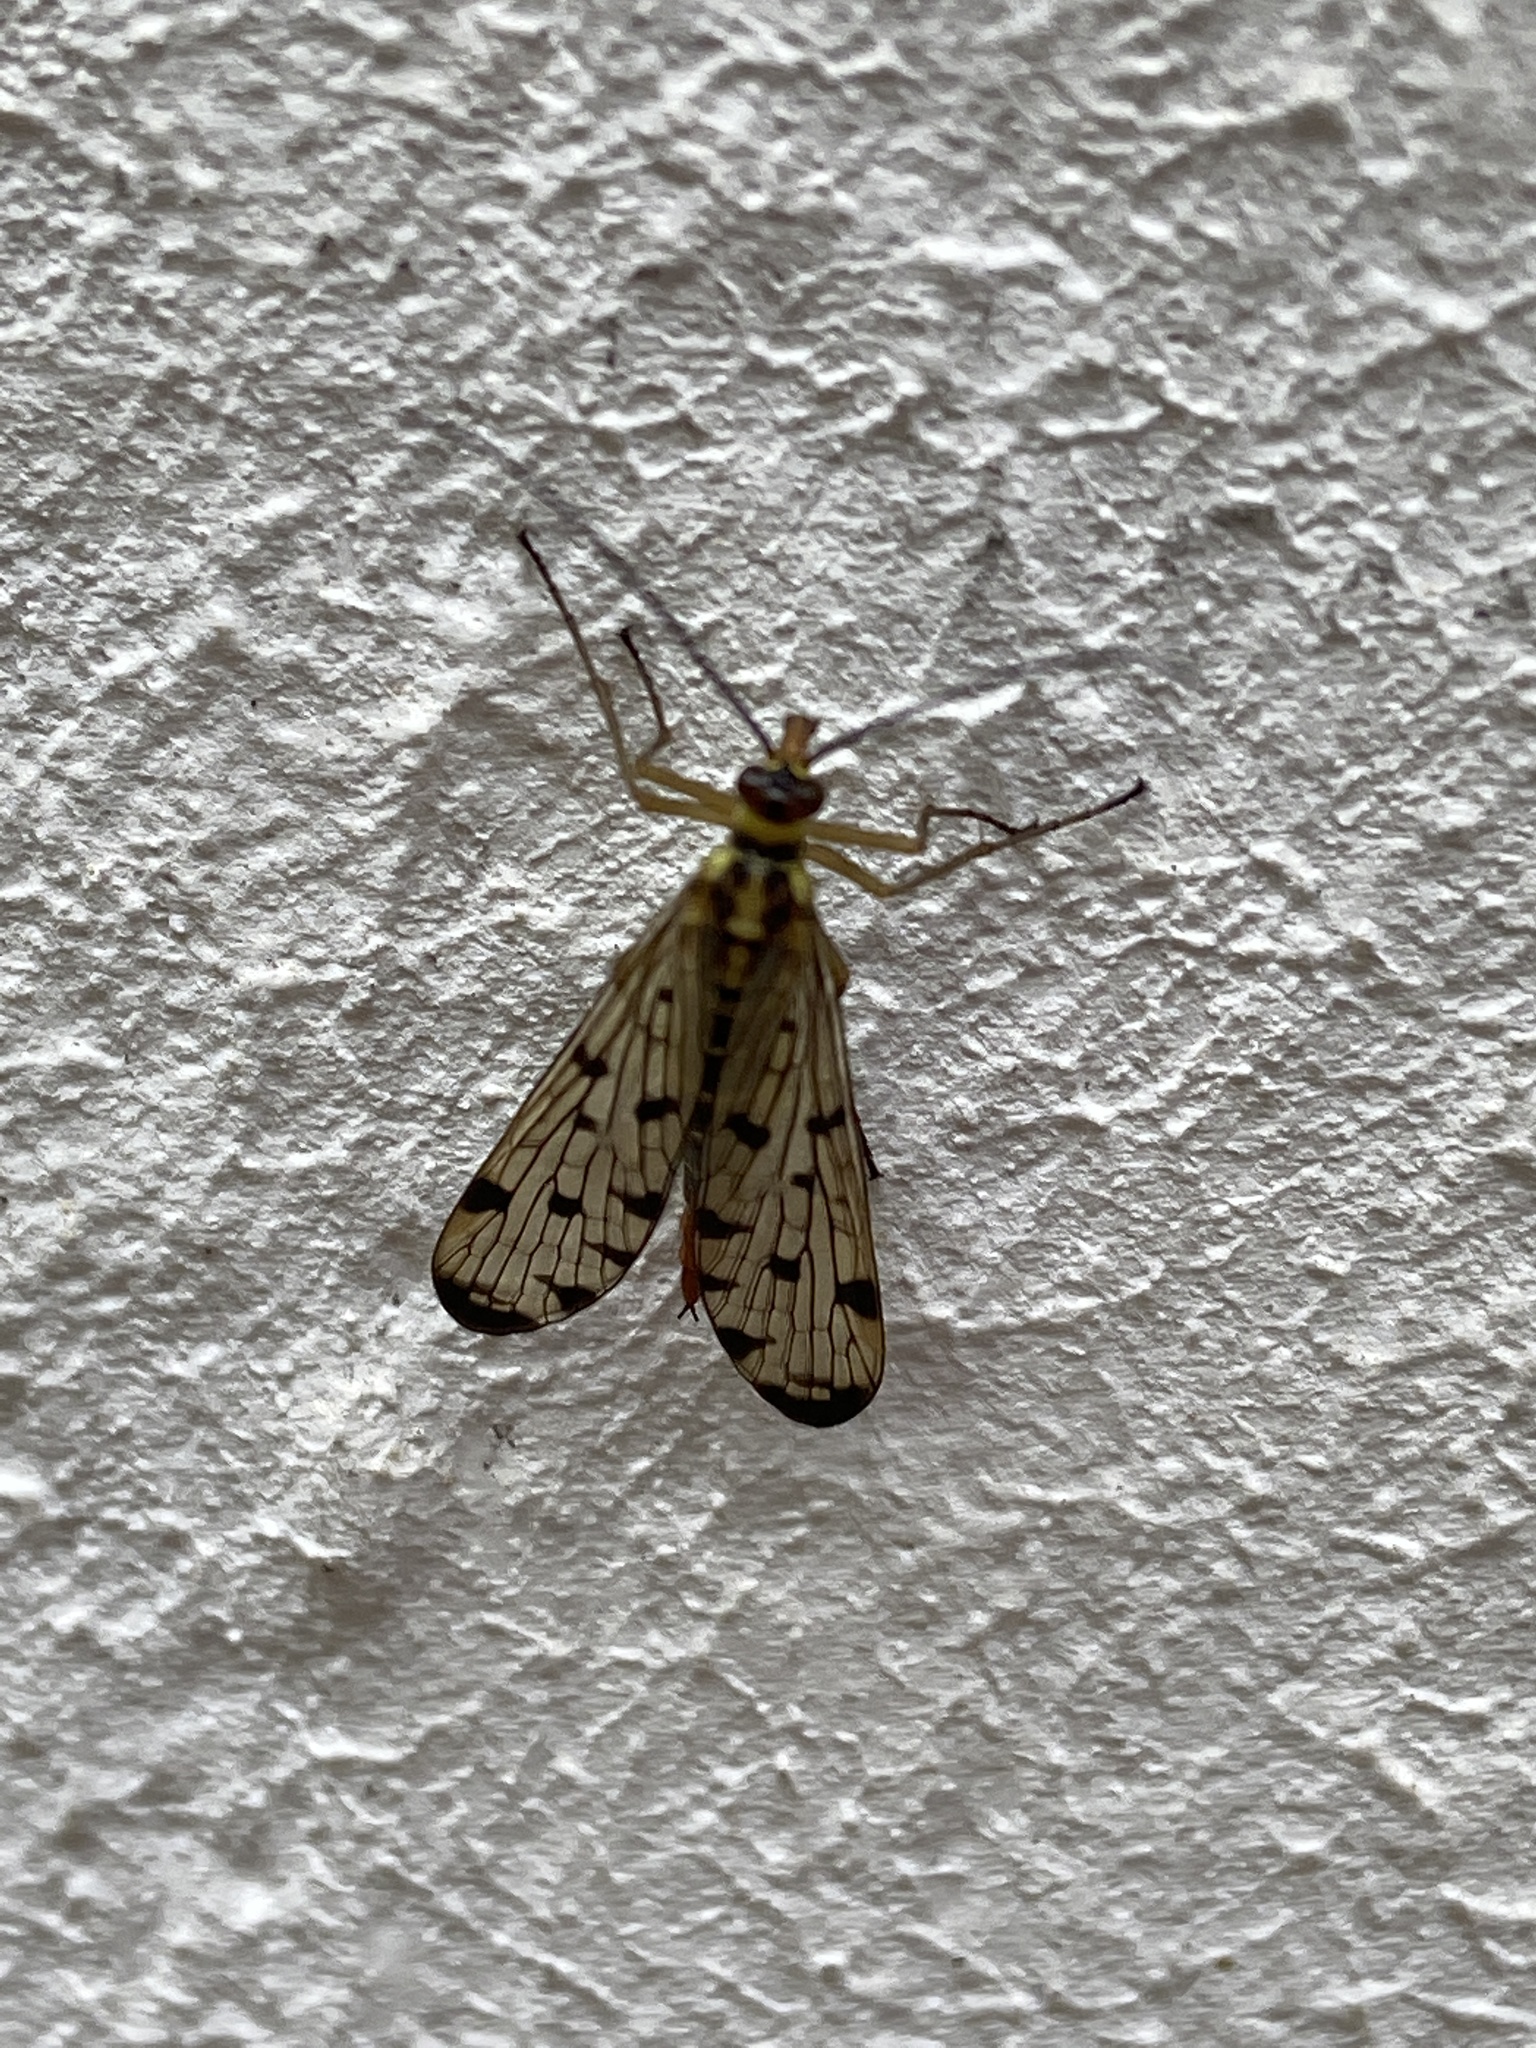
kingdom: Animalia
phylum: Arthropoda
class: Insecta
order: Mecoptera
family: Panorpidae
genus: Panorpa
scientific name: Panorpa germanica
